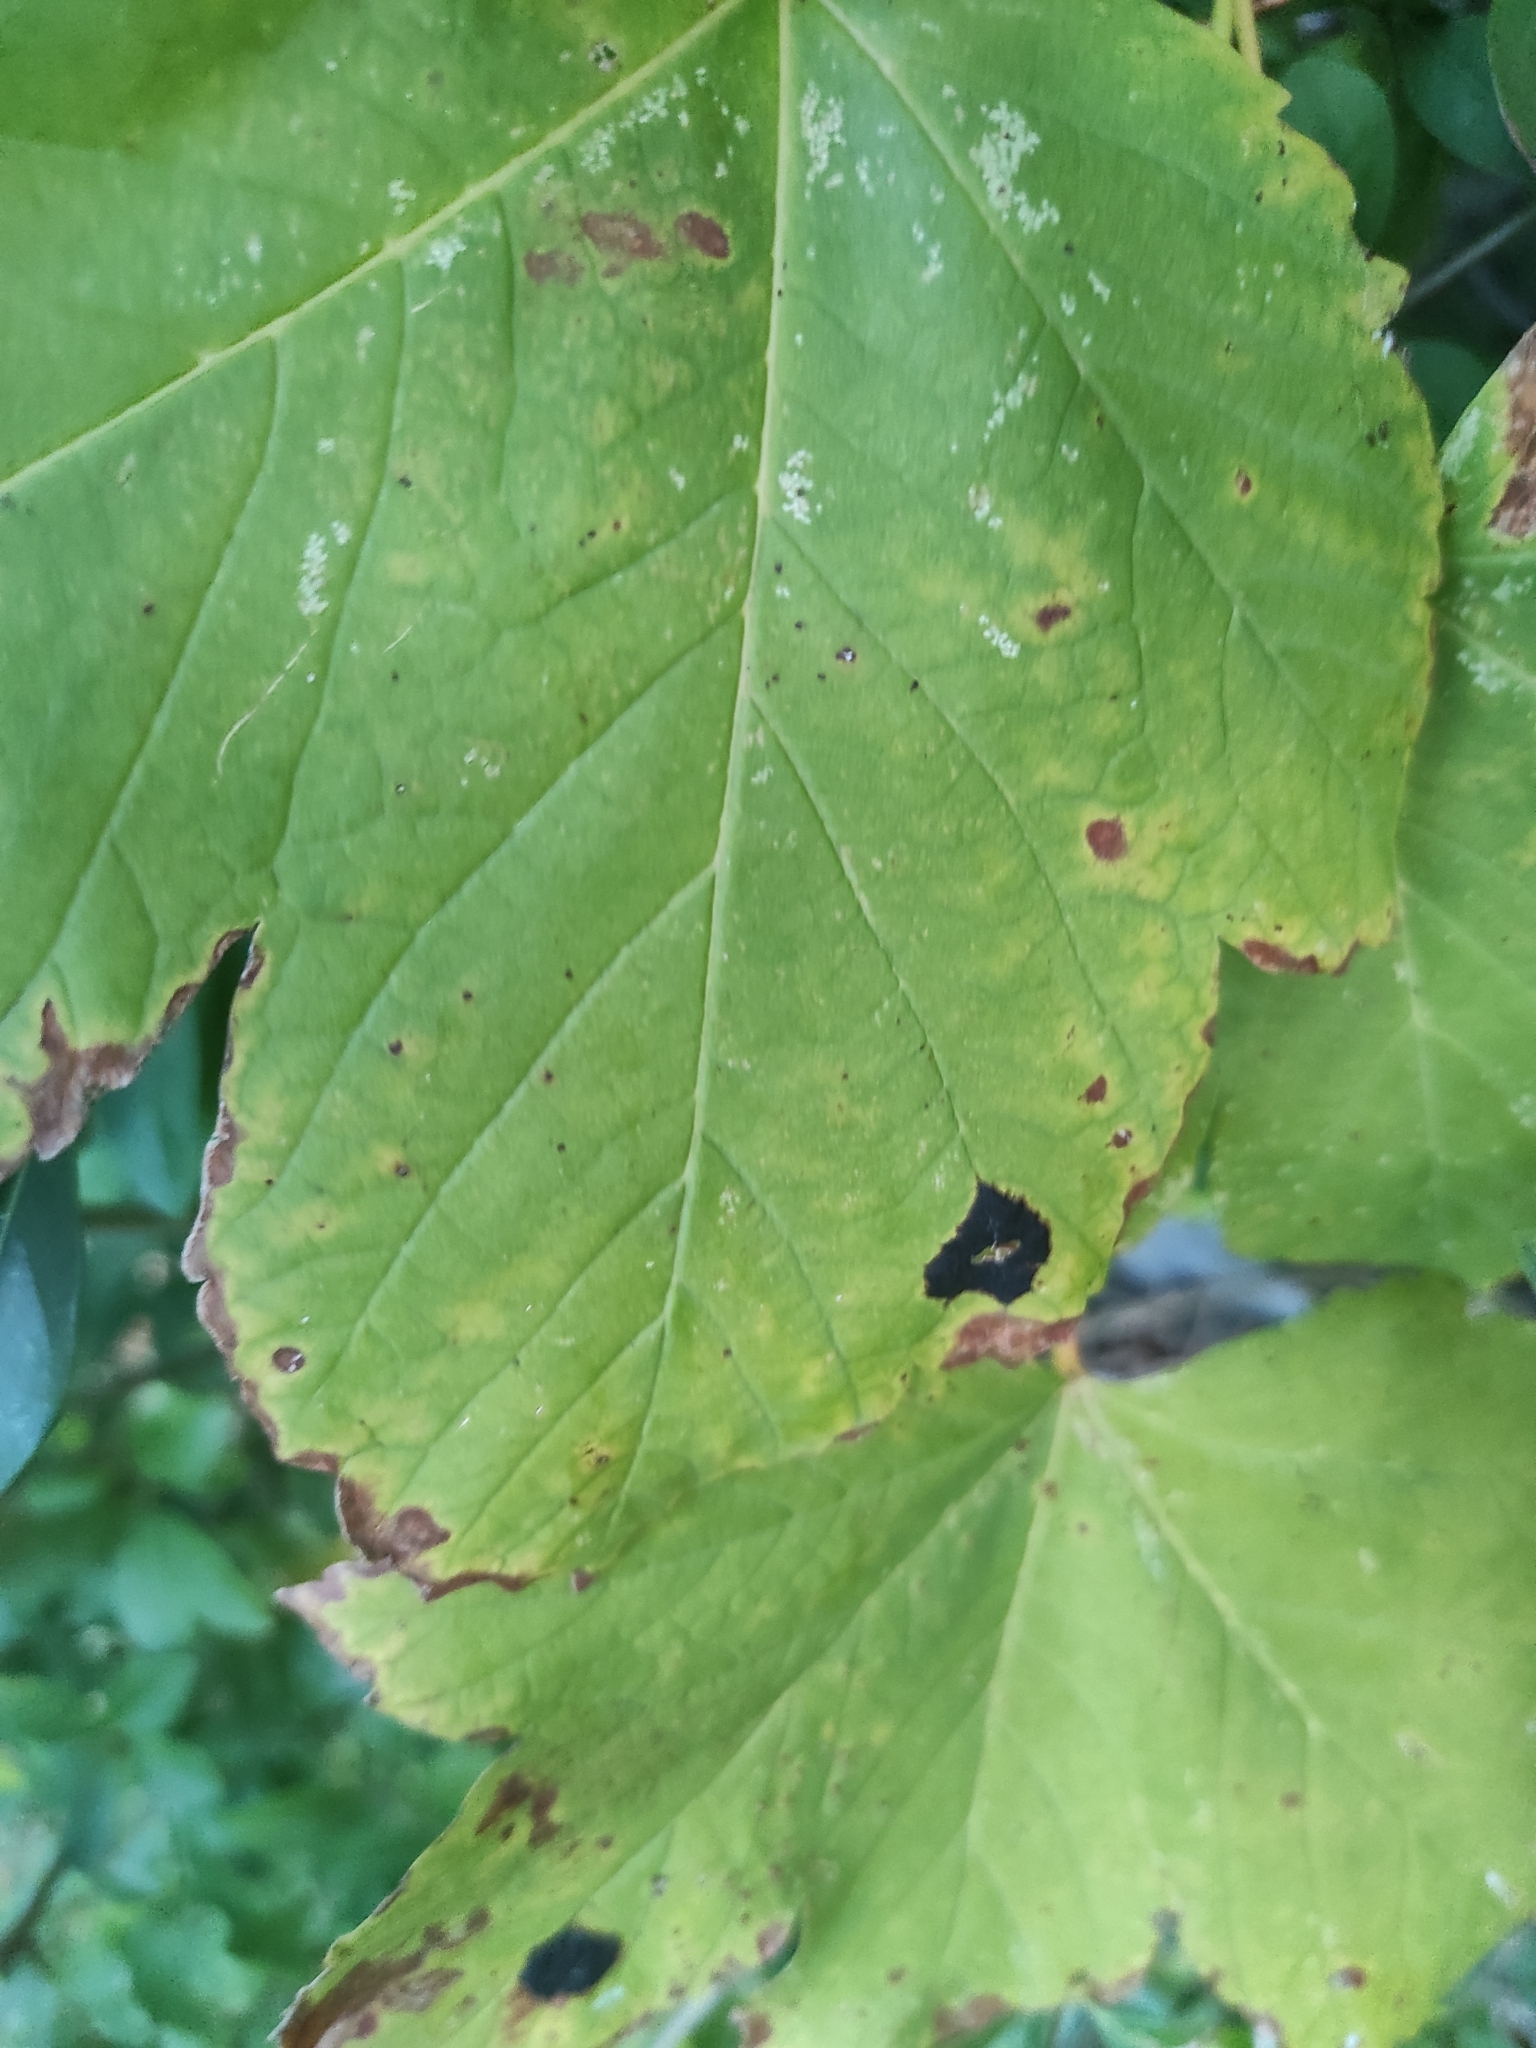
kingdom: Fungi
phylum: Ascomycota
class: Leotiomycetes
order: Rhytismatales
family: Rhytismataceae
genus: Rhytisma
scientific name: Rhytisma acerinum
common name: European tar spot
